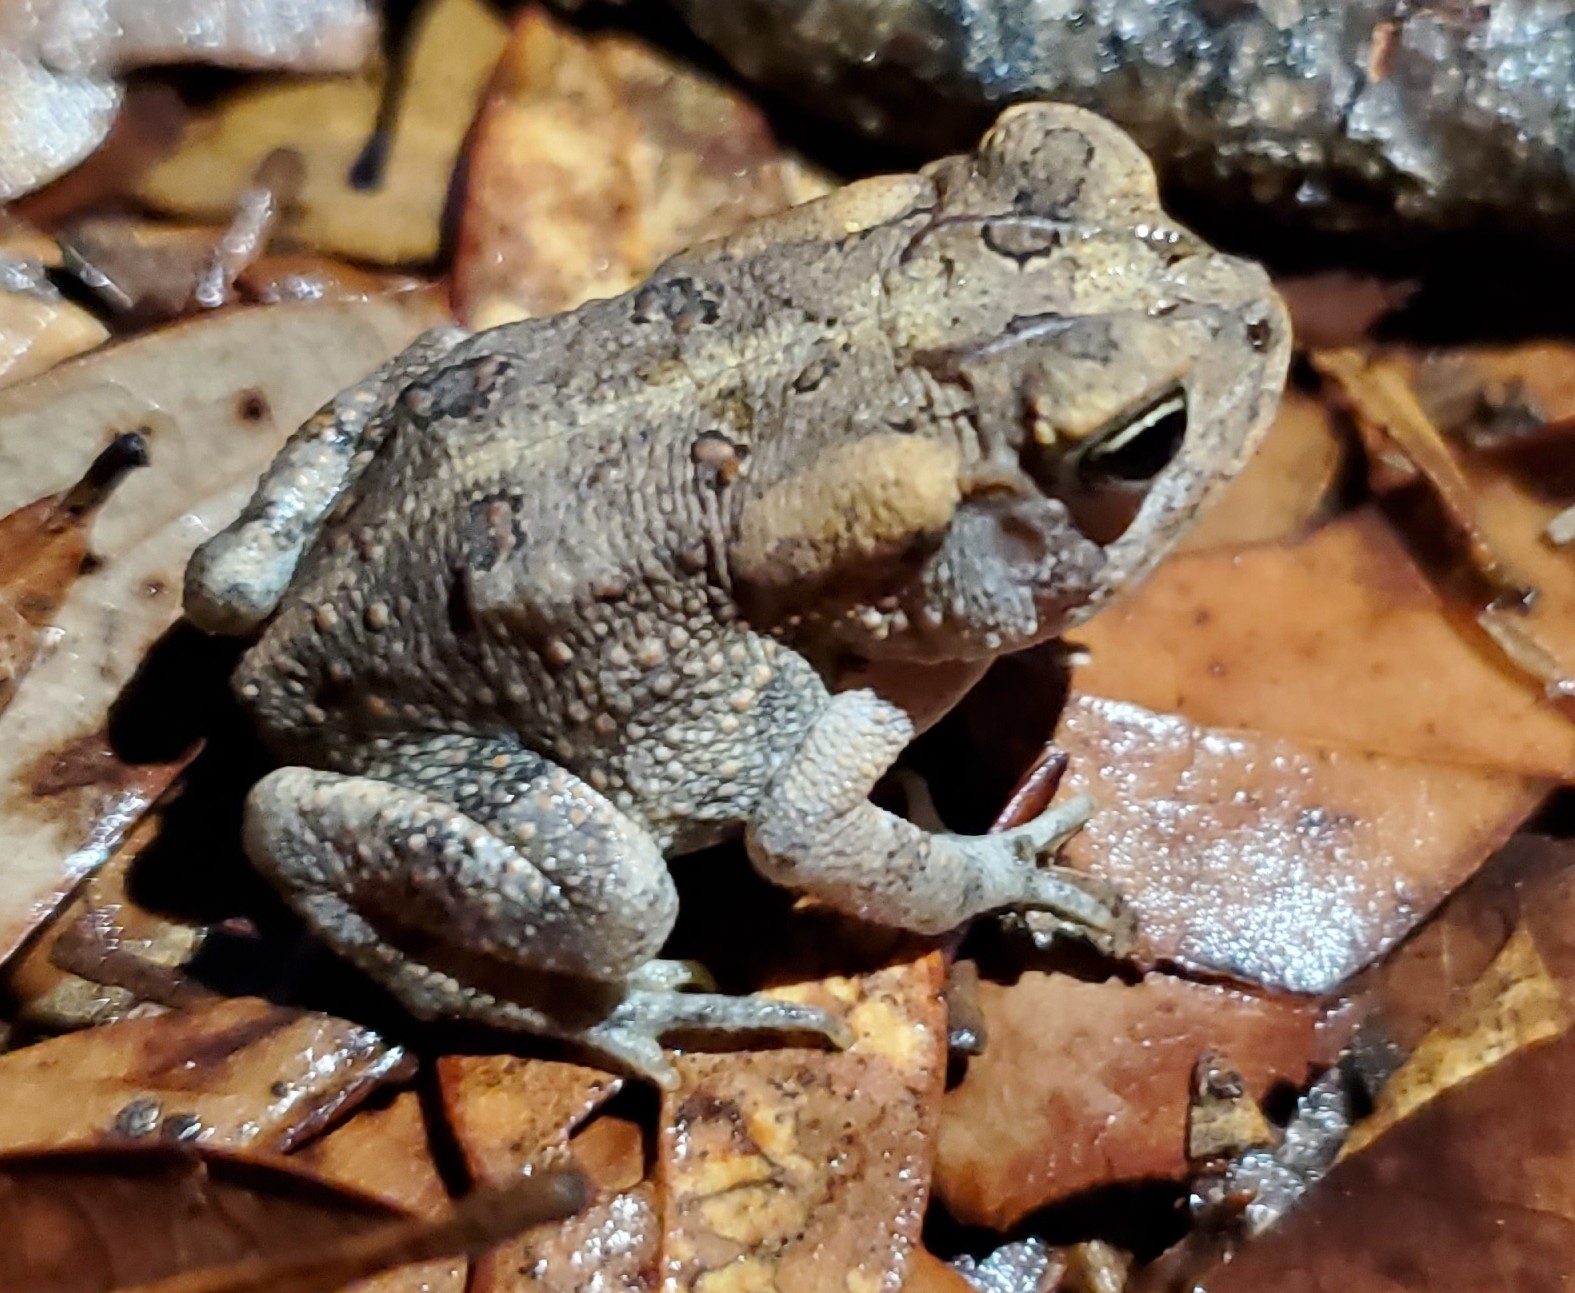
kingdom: Animalia
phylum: Chordata
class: Amphibia
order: Anura
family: Bufonidae
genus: Anaxyrus
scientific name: Anaxyrus terrestris
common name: Southern toad
